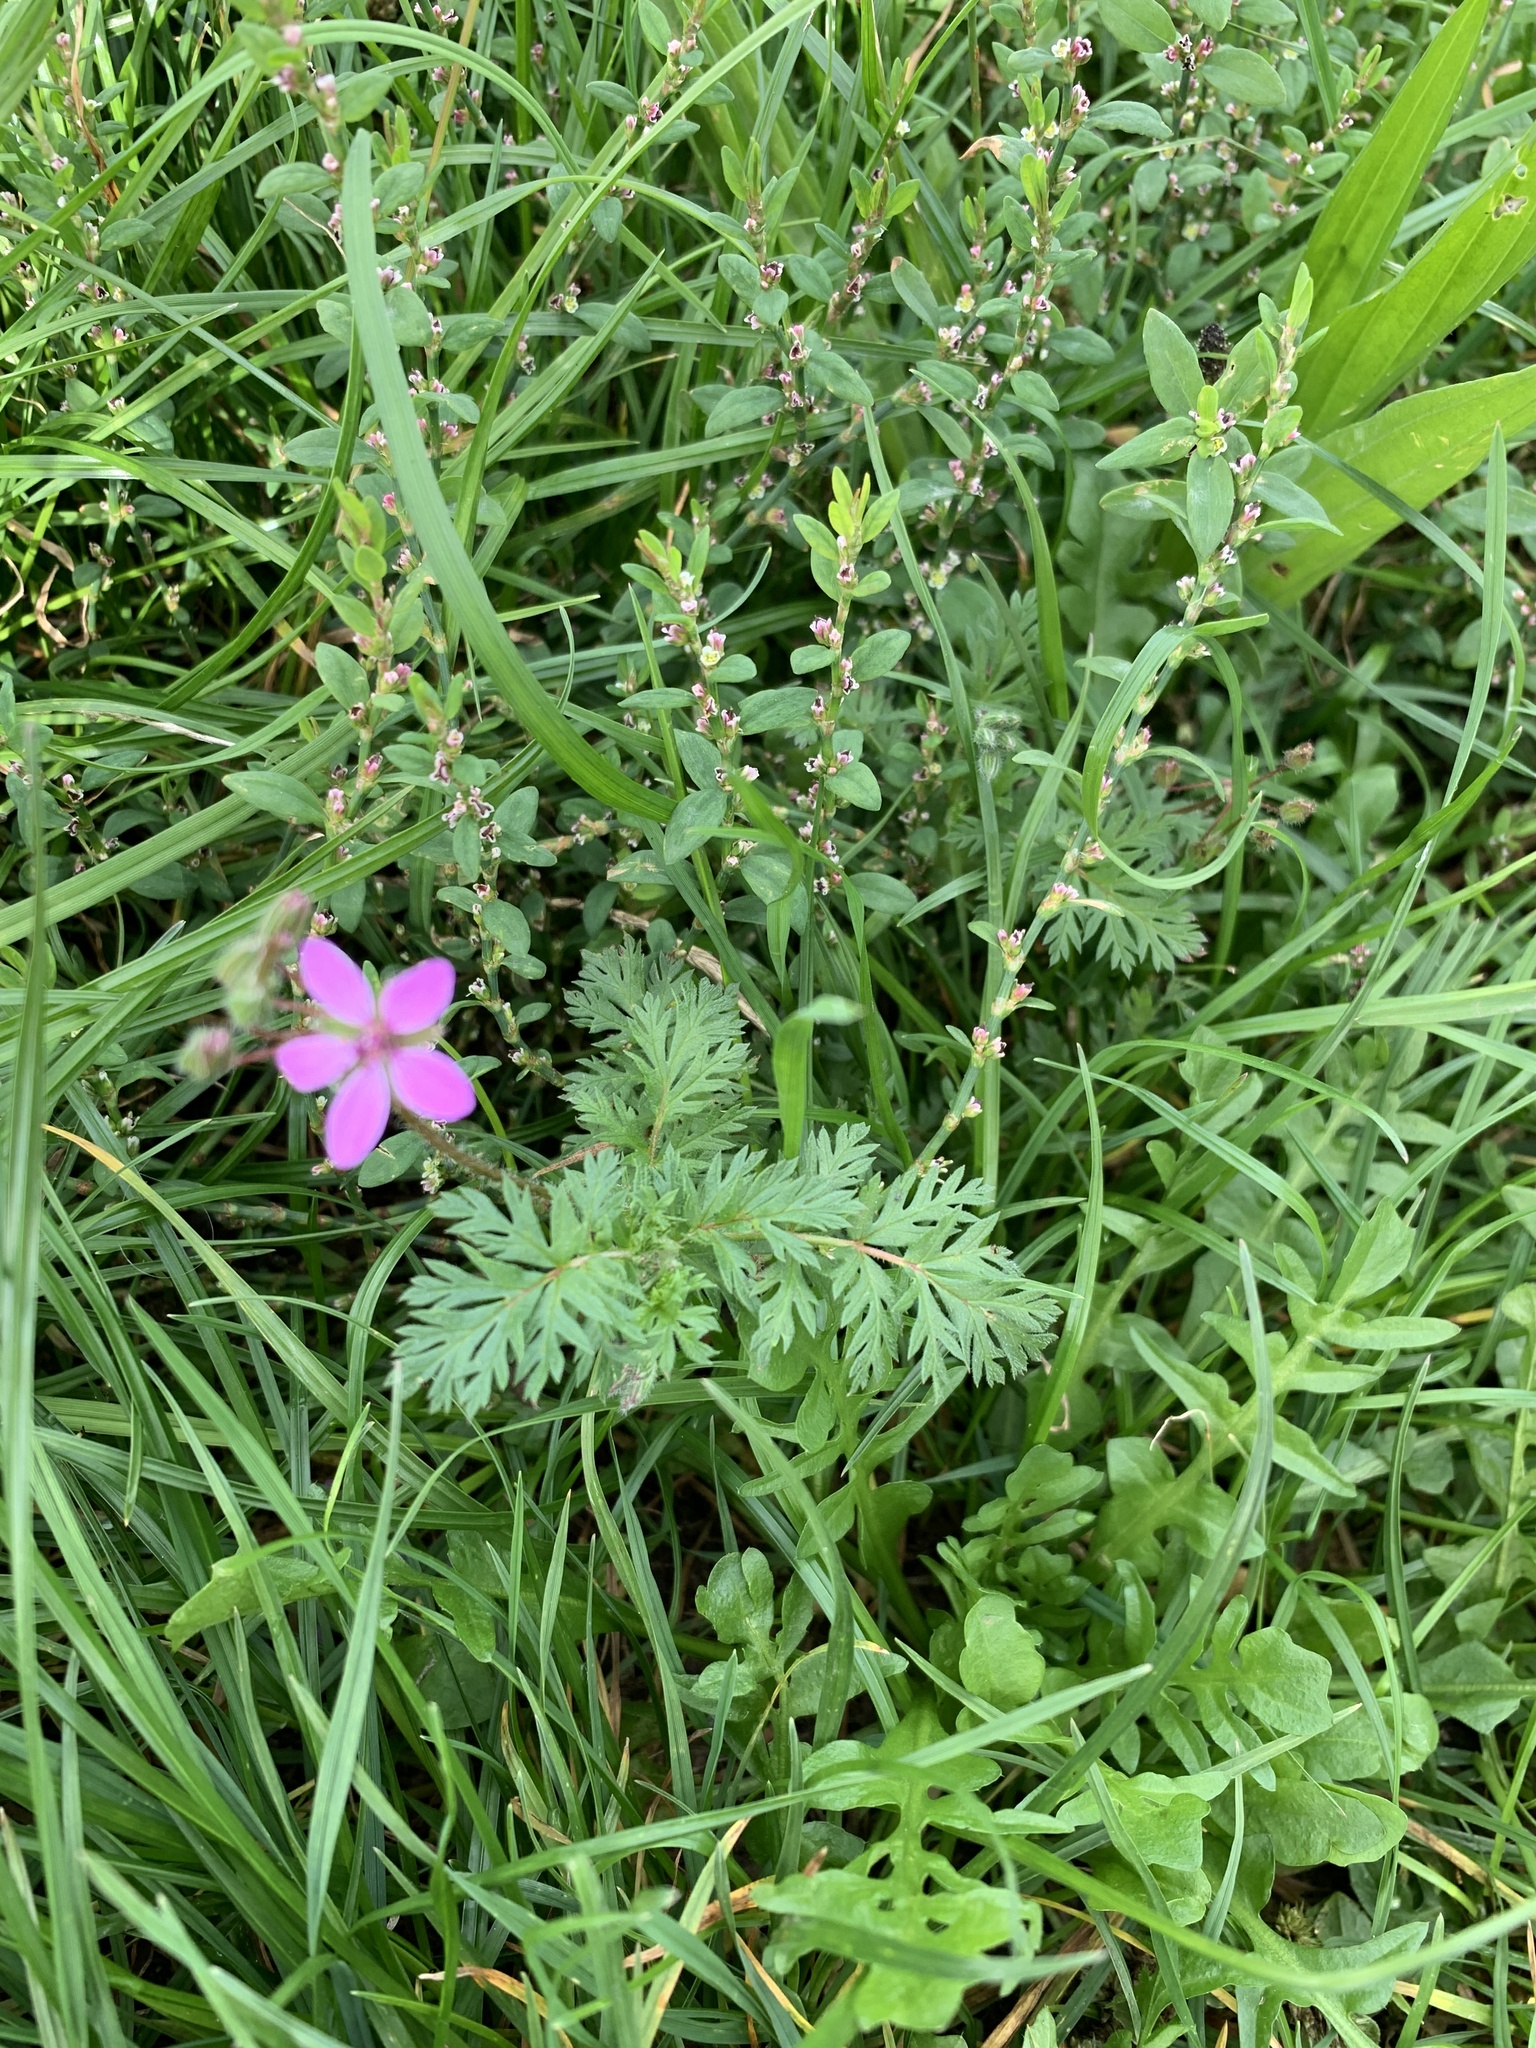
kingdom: Plantae
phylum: Tracheophyta
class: Magnoliopsida
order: Geraniales
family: Geraniaceae
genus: Erodium
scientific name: Erodium cicutarium
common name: Common stork's-bill
